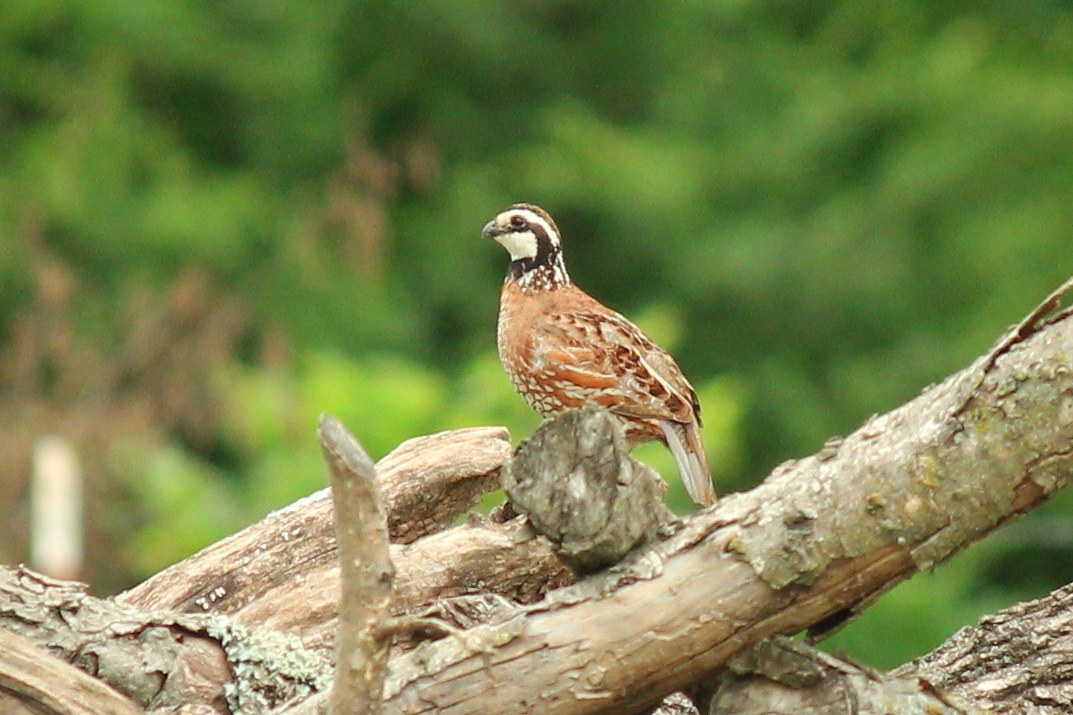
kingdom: Animalia
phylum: Chordata
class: Aves
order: Galliformes
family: Odontophoridae
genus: Colinus
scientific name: Colinus virginianus
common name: Northern bobwhite
